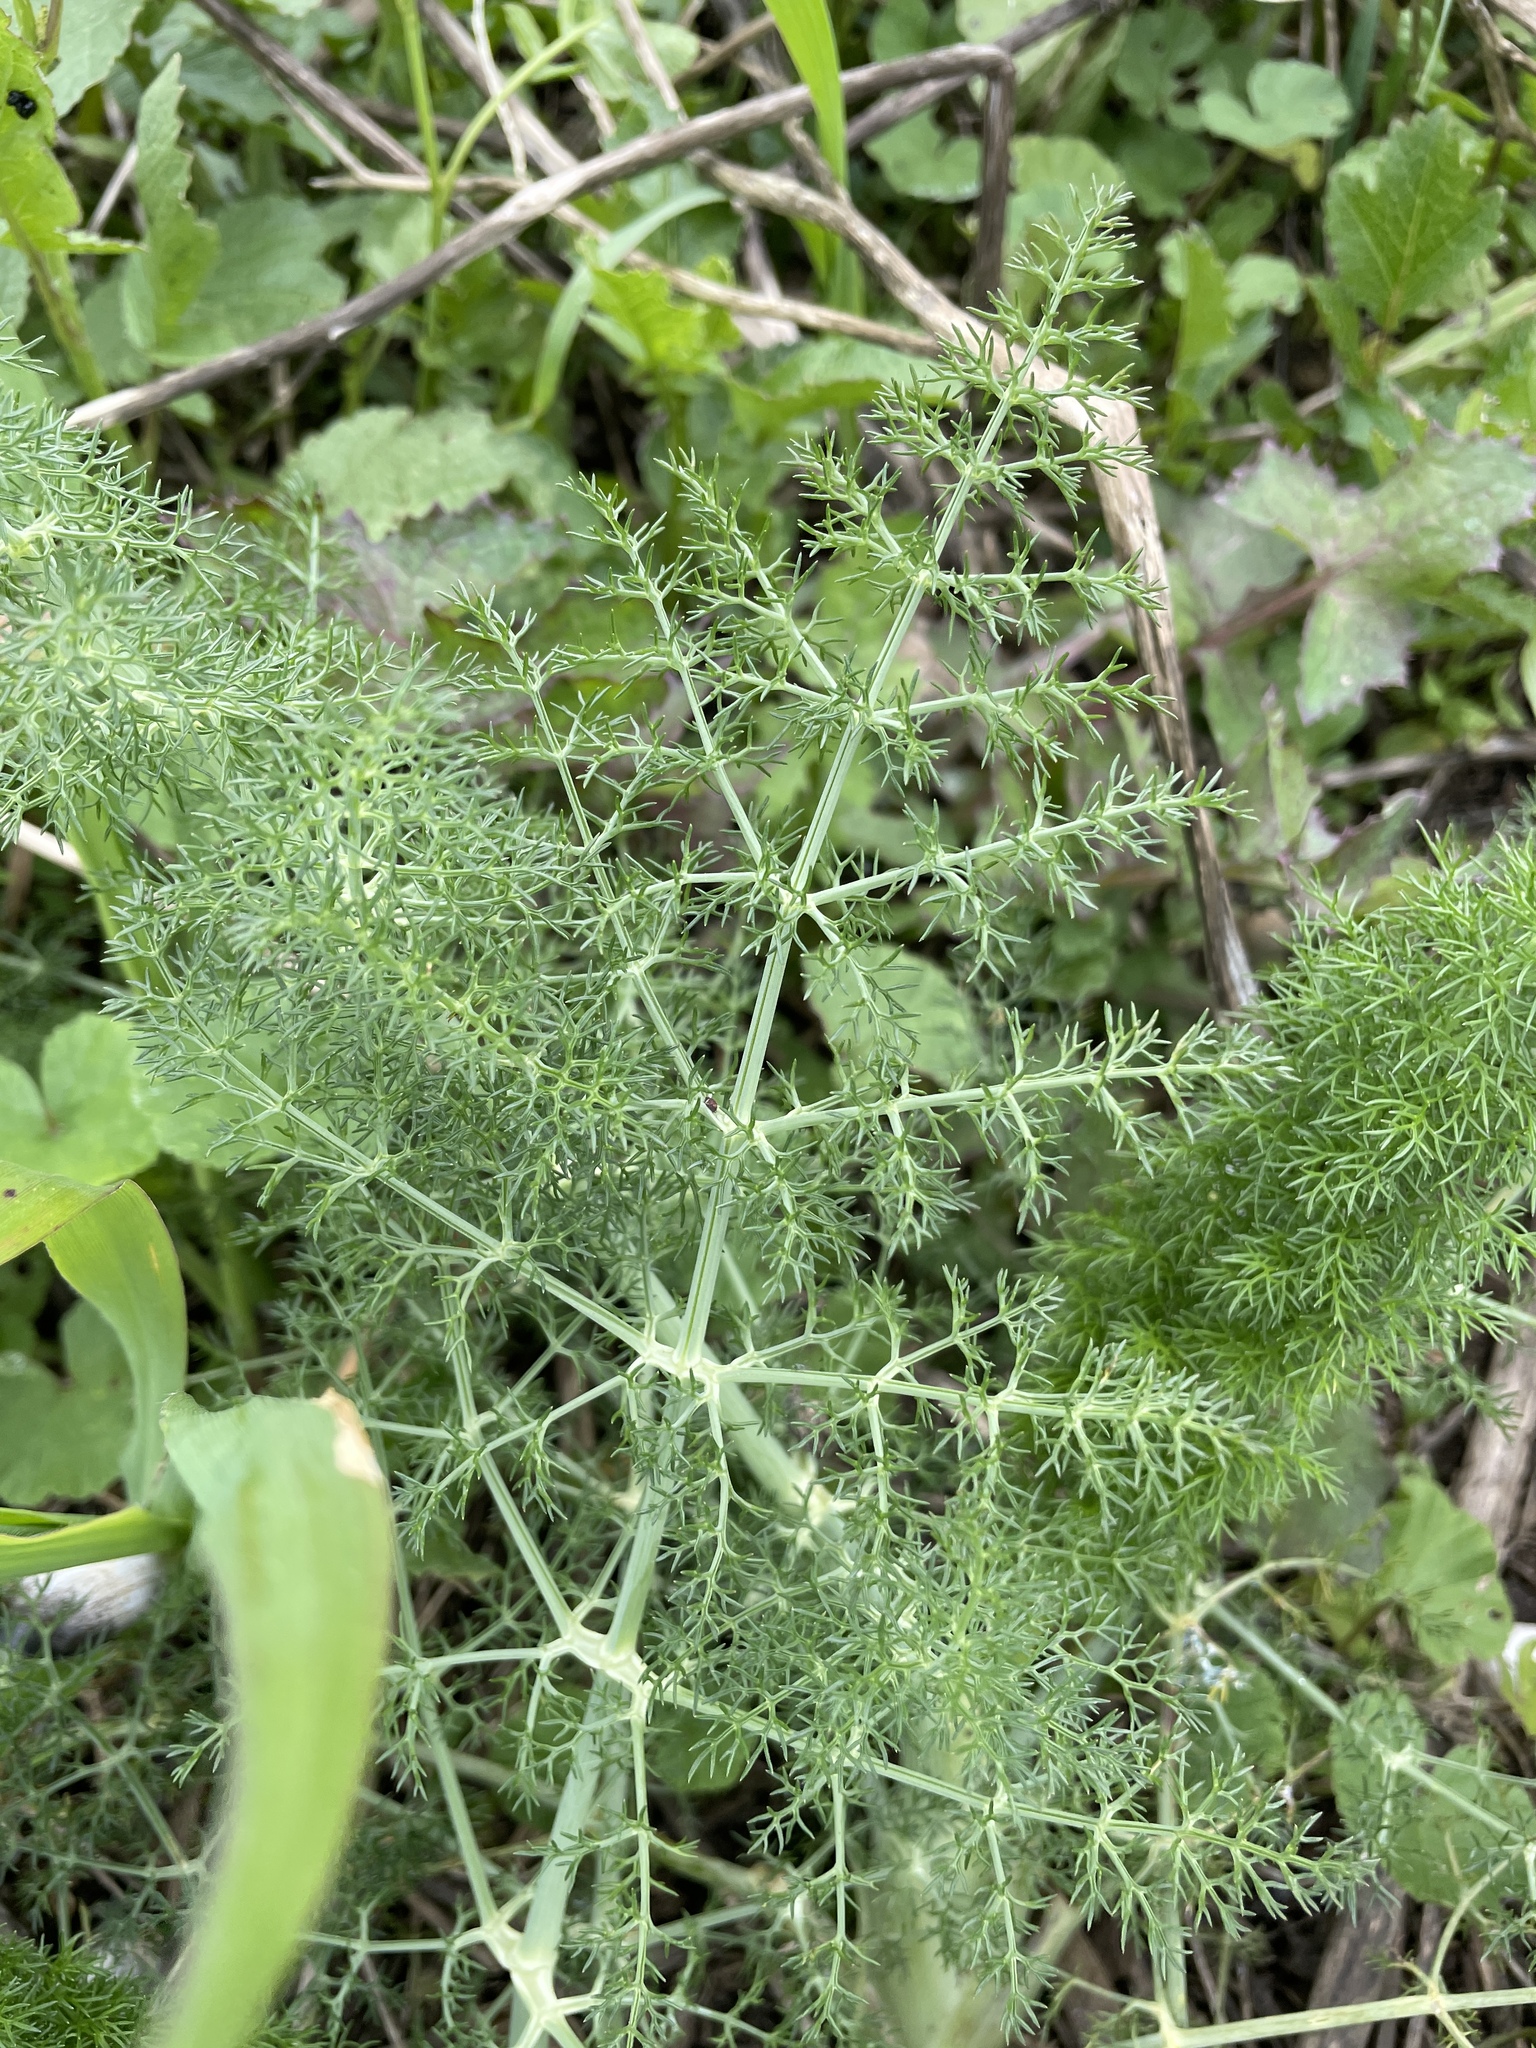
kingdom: Plantae
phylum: Tracheophyta
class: Magnoliopsida
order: Apiales
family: Apiaceae
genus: Foeniculum
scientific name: Foeniculum vulgare
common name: Fennel
